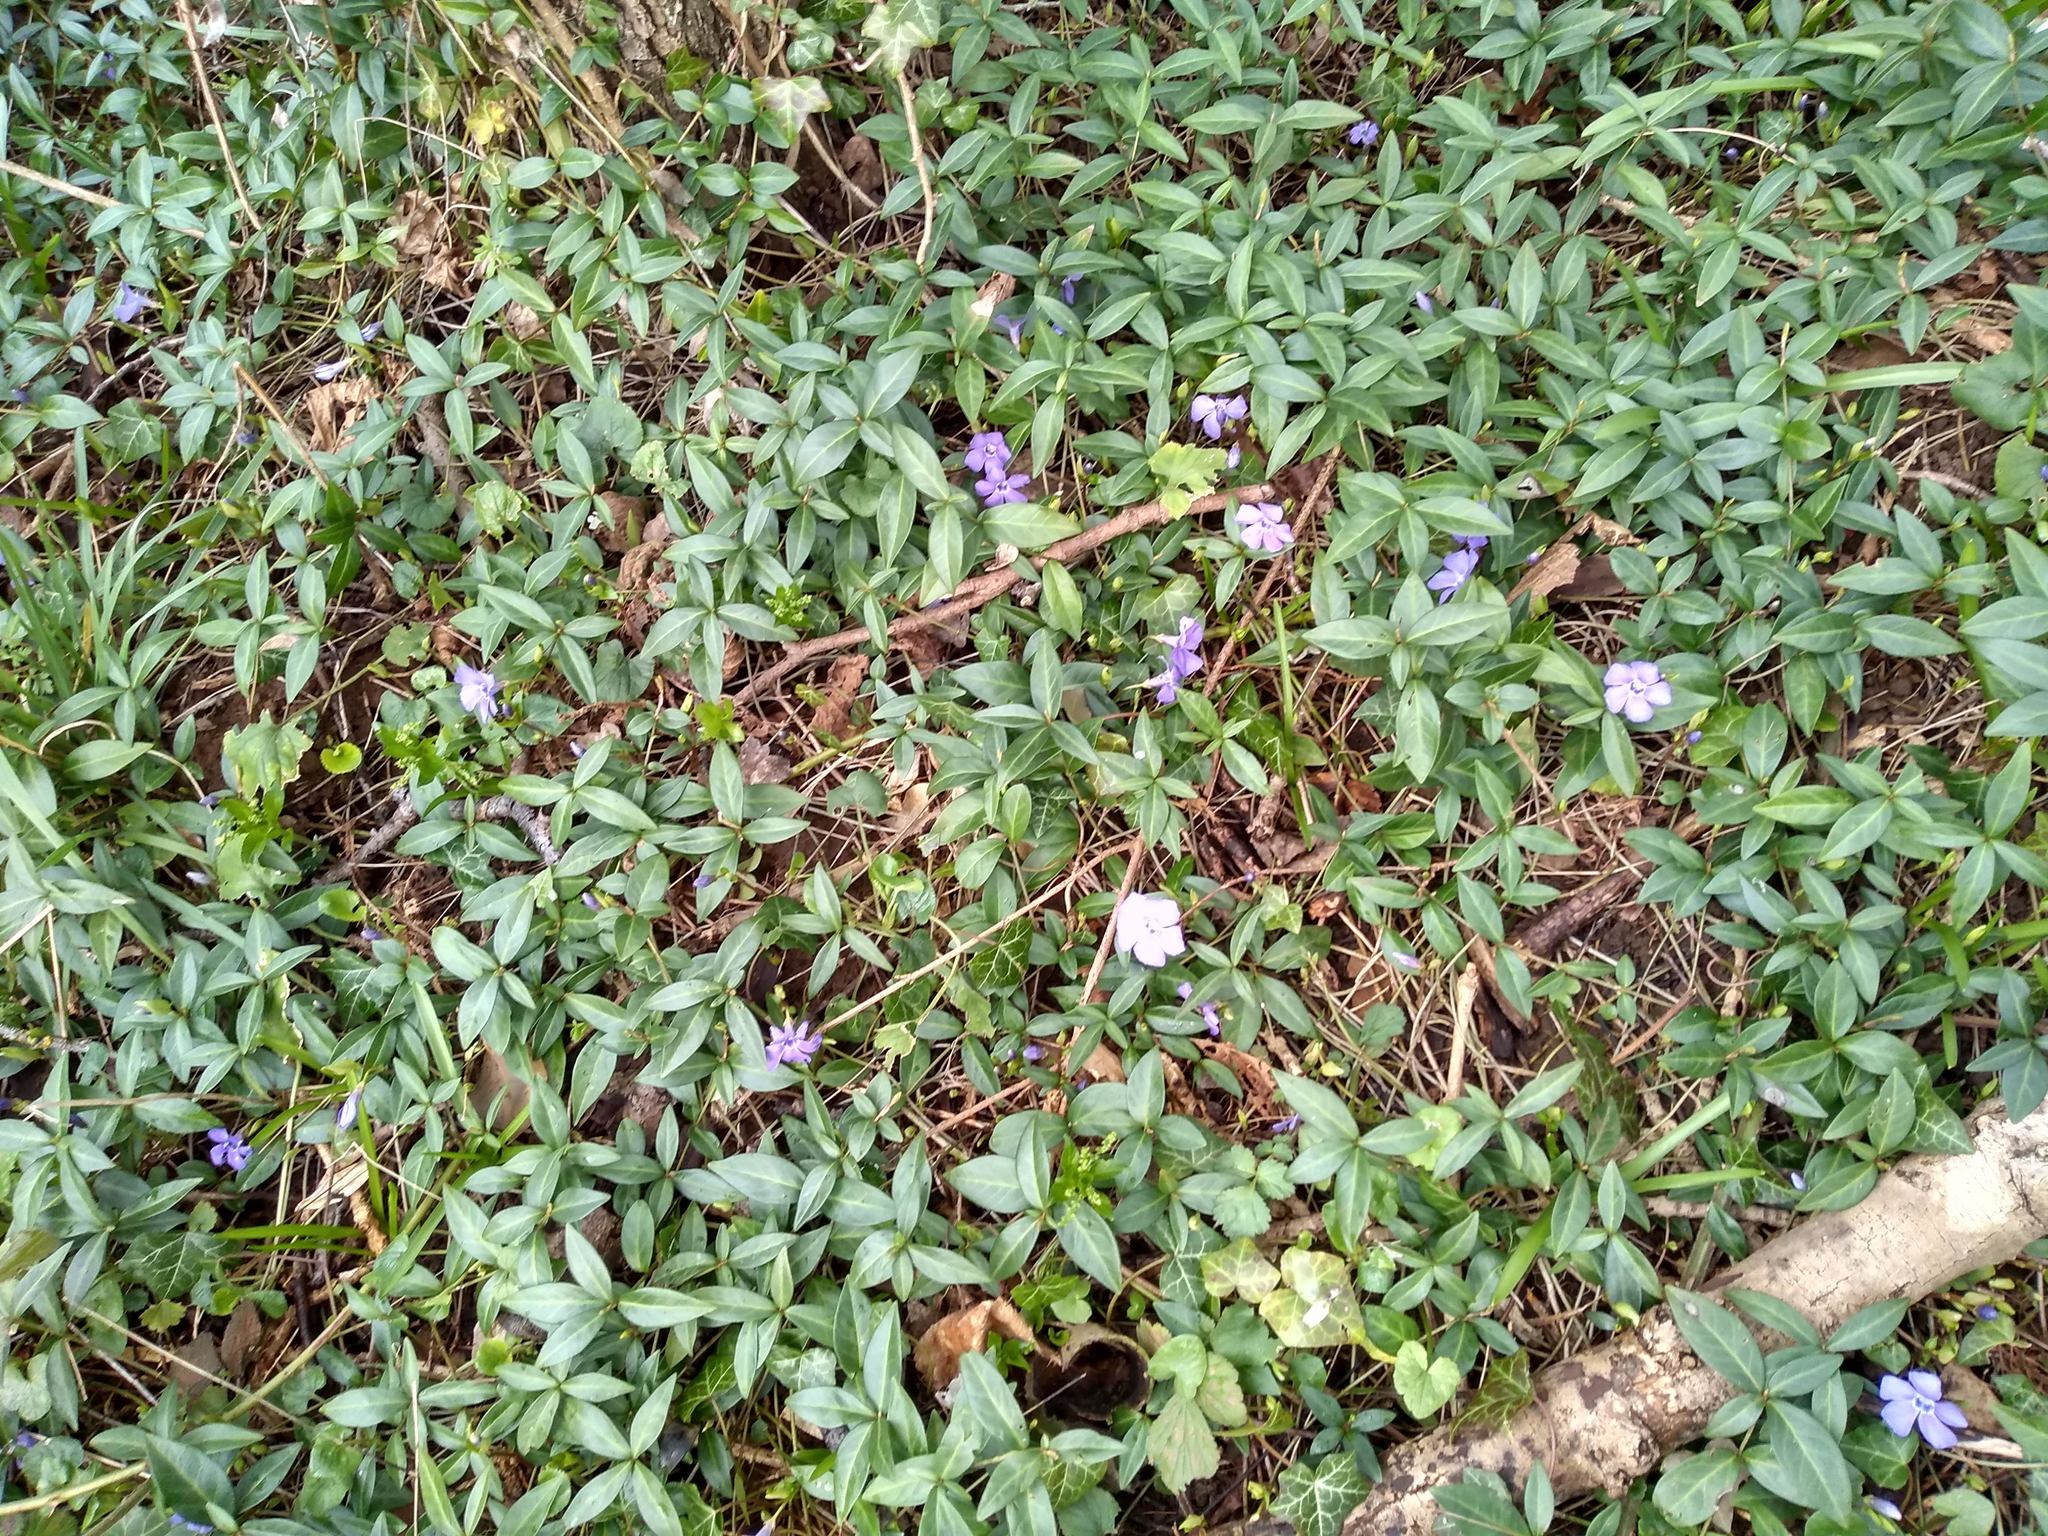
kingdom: Plantae
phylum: Tracheophyta
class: Magnoliopsida
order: Gentianales
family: Apocynaceae
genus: Vinca
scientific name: Vinca minor
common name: Lesser periwinkle
